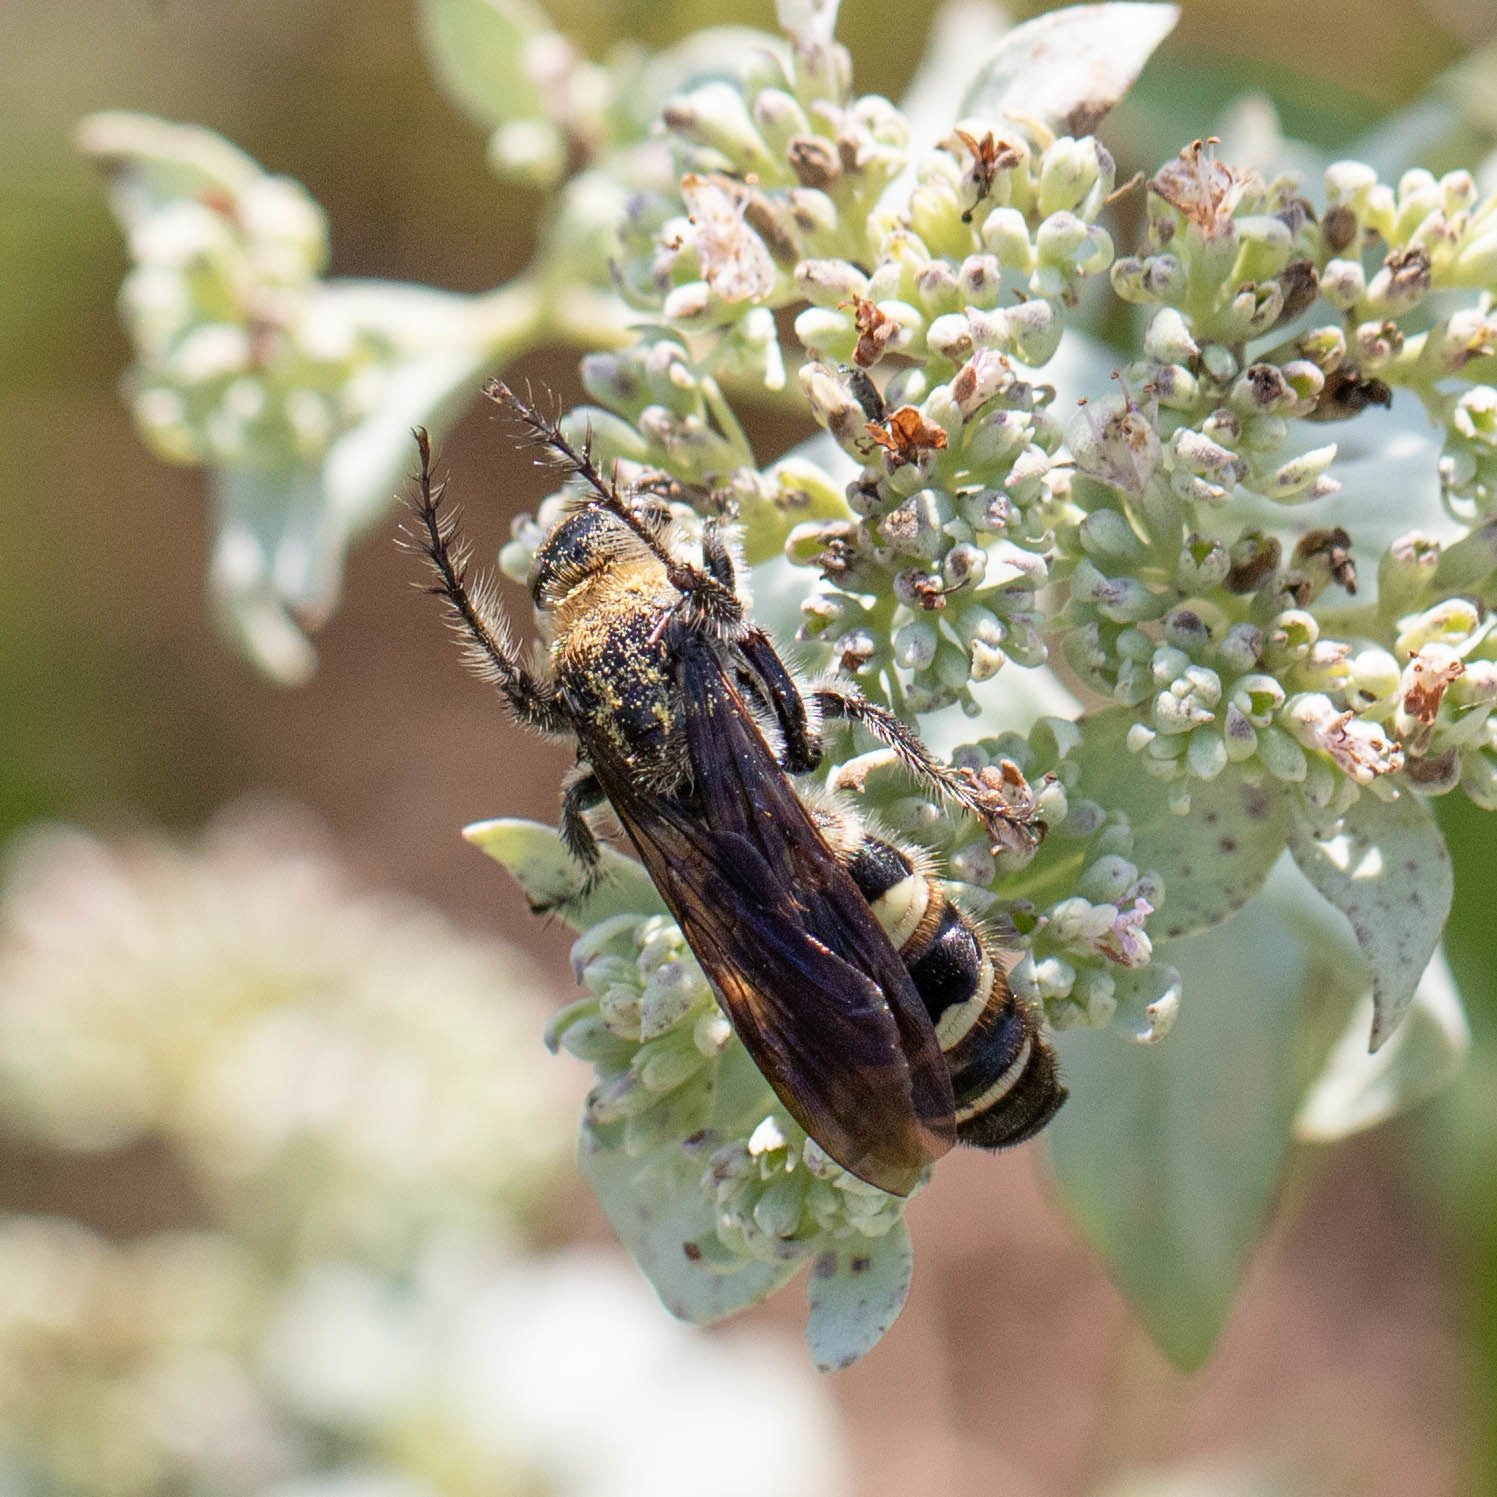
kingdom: Animalia
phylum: Arthropoda
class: Insecta
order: Hymenoptera
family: Scoliidae
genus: Dielis
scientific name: Dielis
